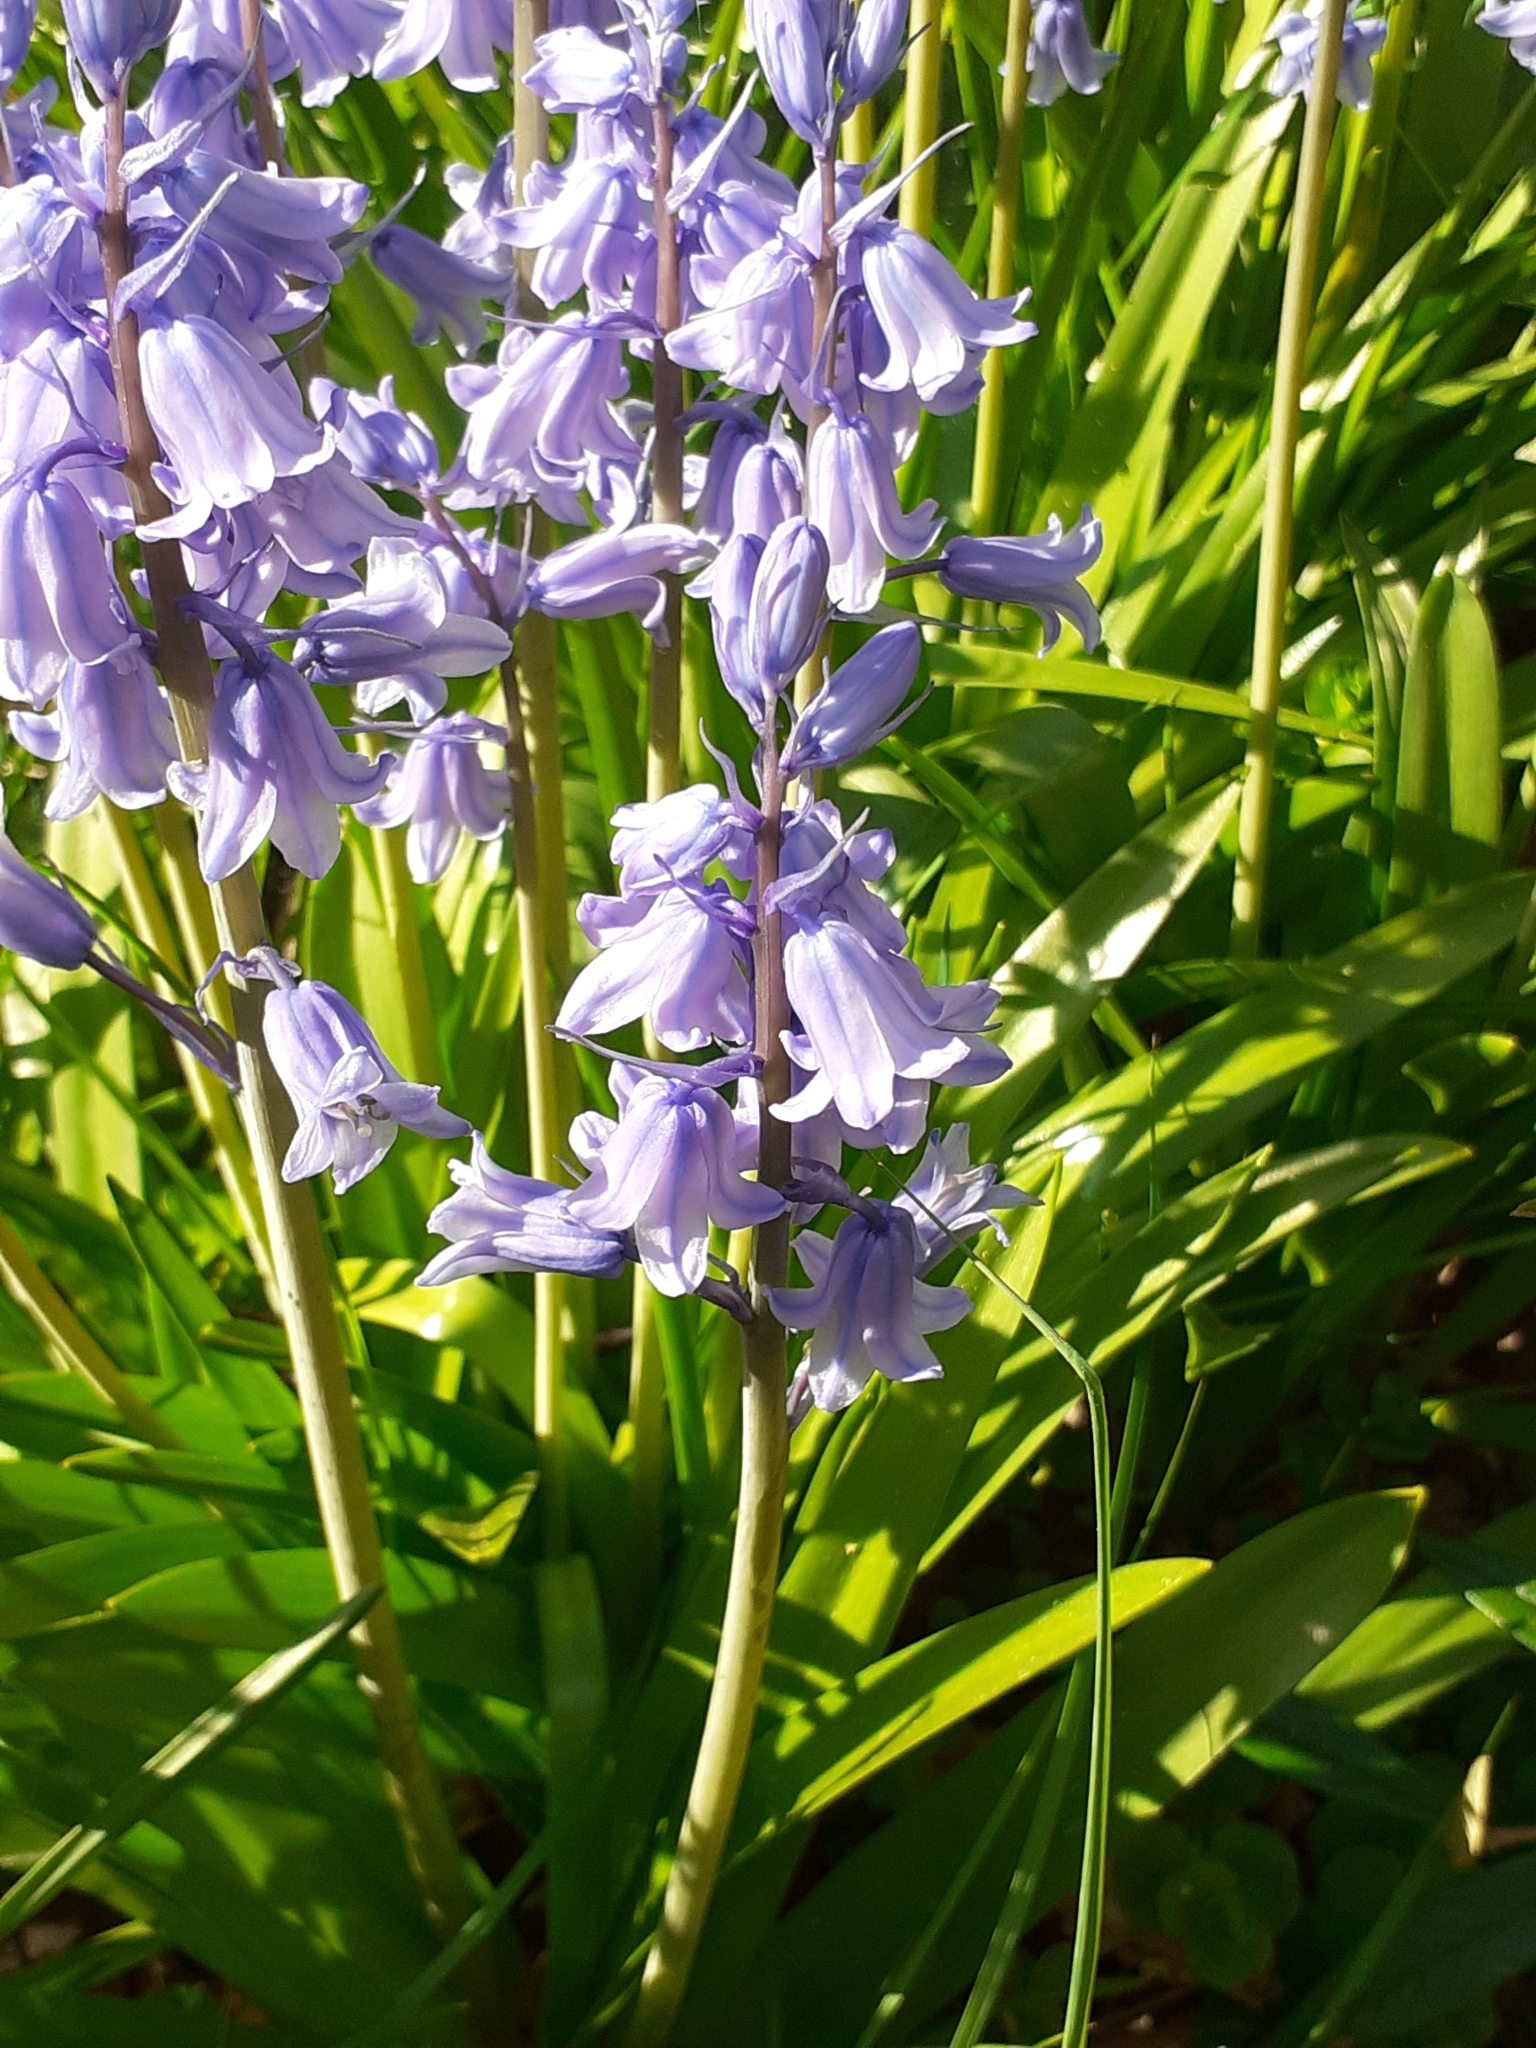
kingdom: Plantae
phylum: Tracheophyta
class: Liliopsida
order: Asparagales
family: Asparagaceae
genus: Hyacinthoides
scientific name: Hyacinthoides massartiana
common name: Hyacinthoides
